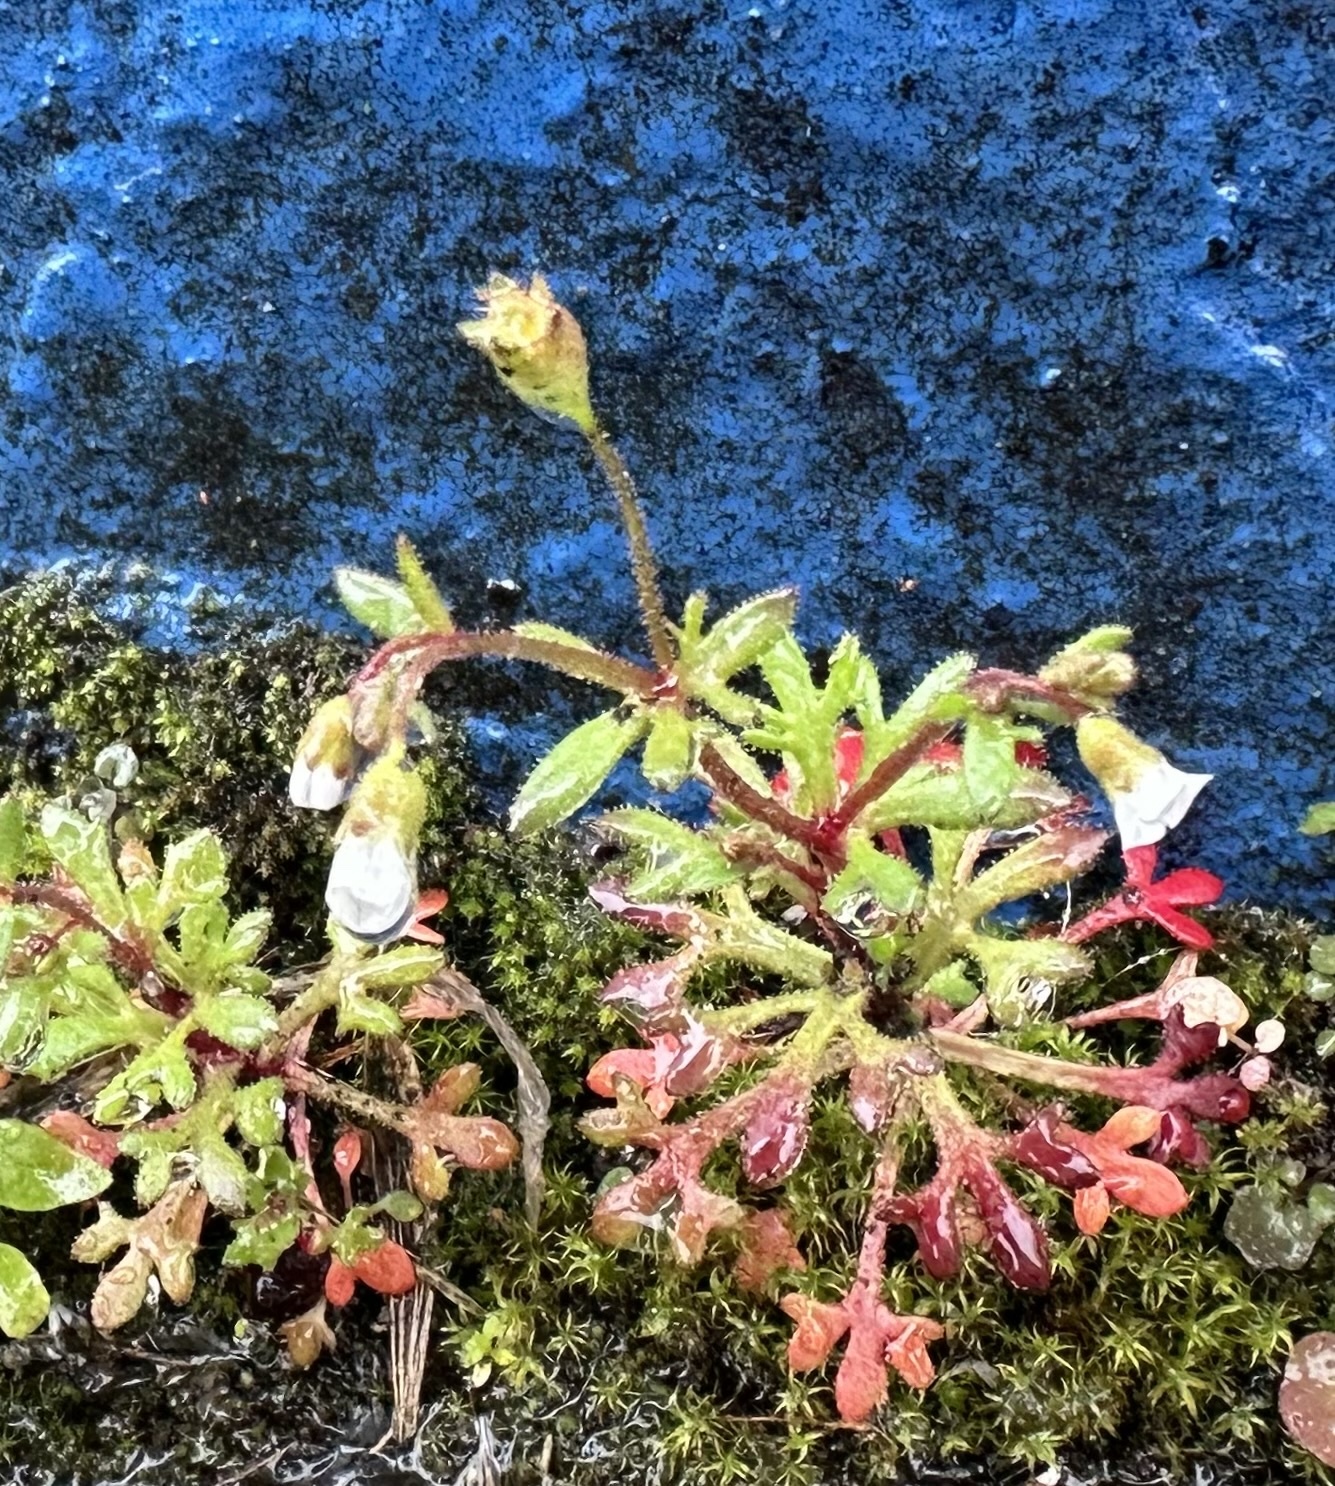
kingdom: Plantae
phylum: Tracheophyta
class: Magnoliopsida
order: Saxifragales
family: Saxifragaceae
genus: Saxifraga
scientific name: Saxifraga tridactylites
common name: Rue-leaved saxifrage
